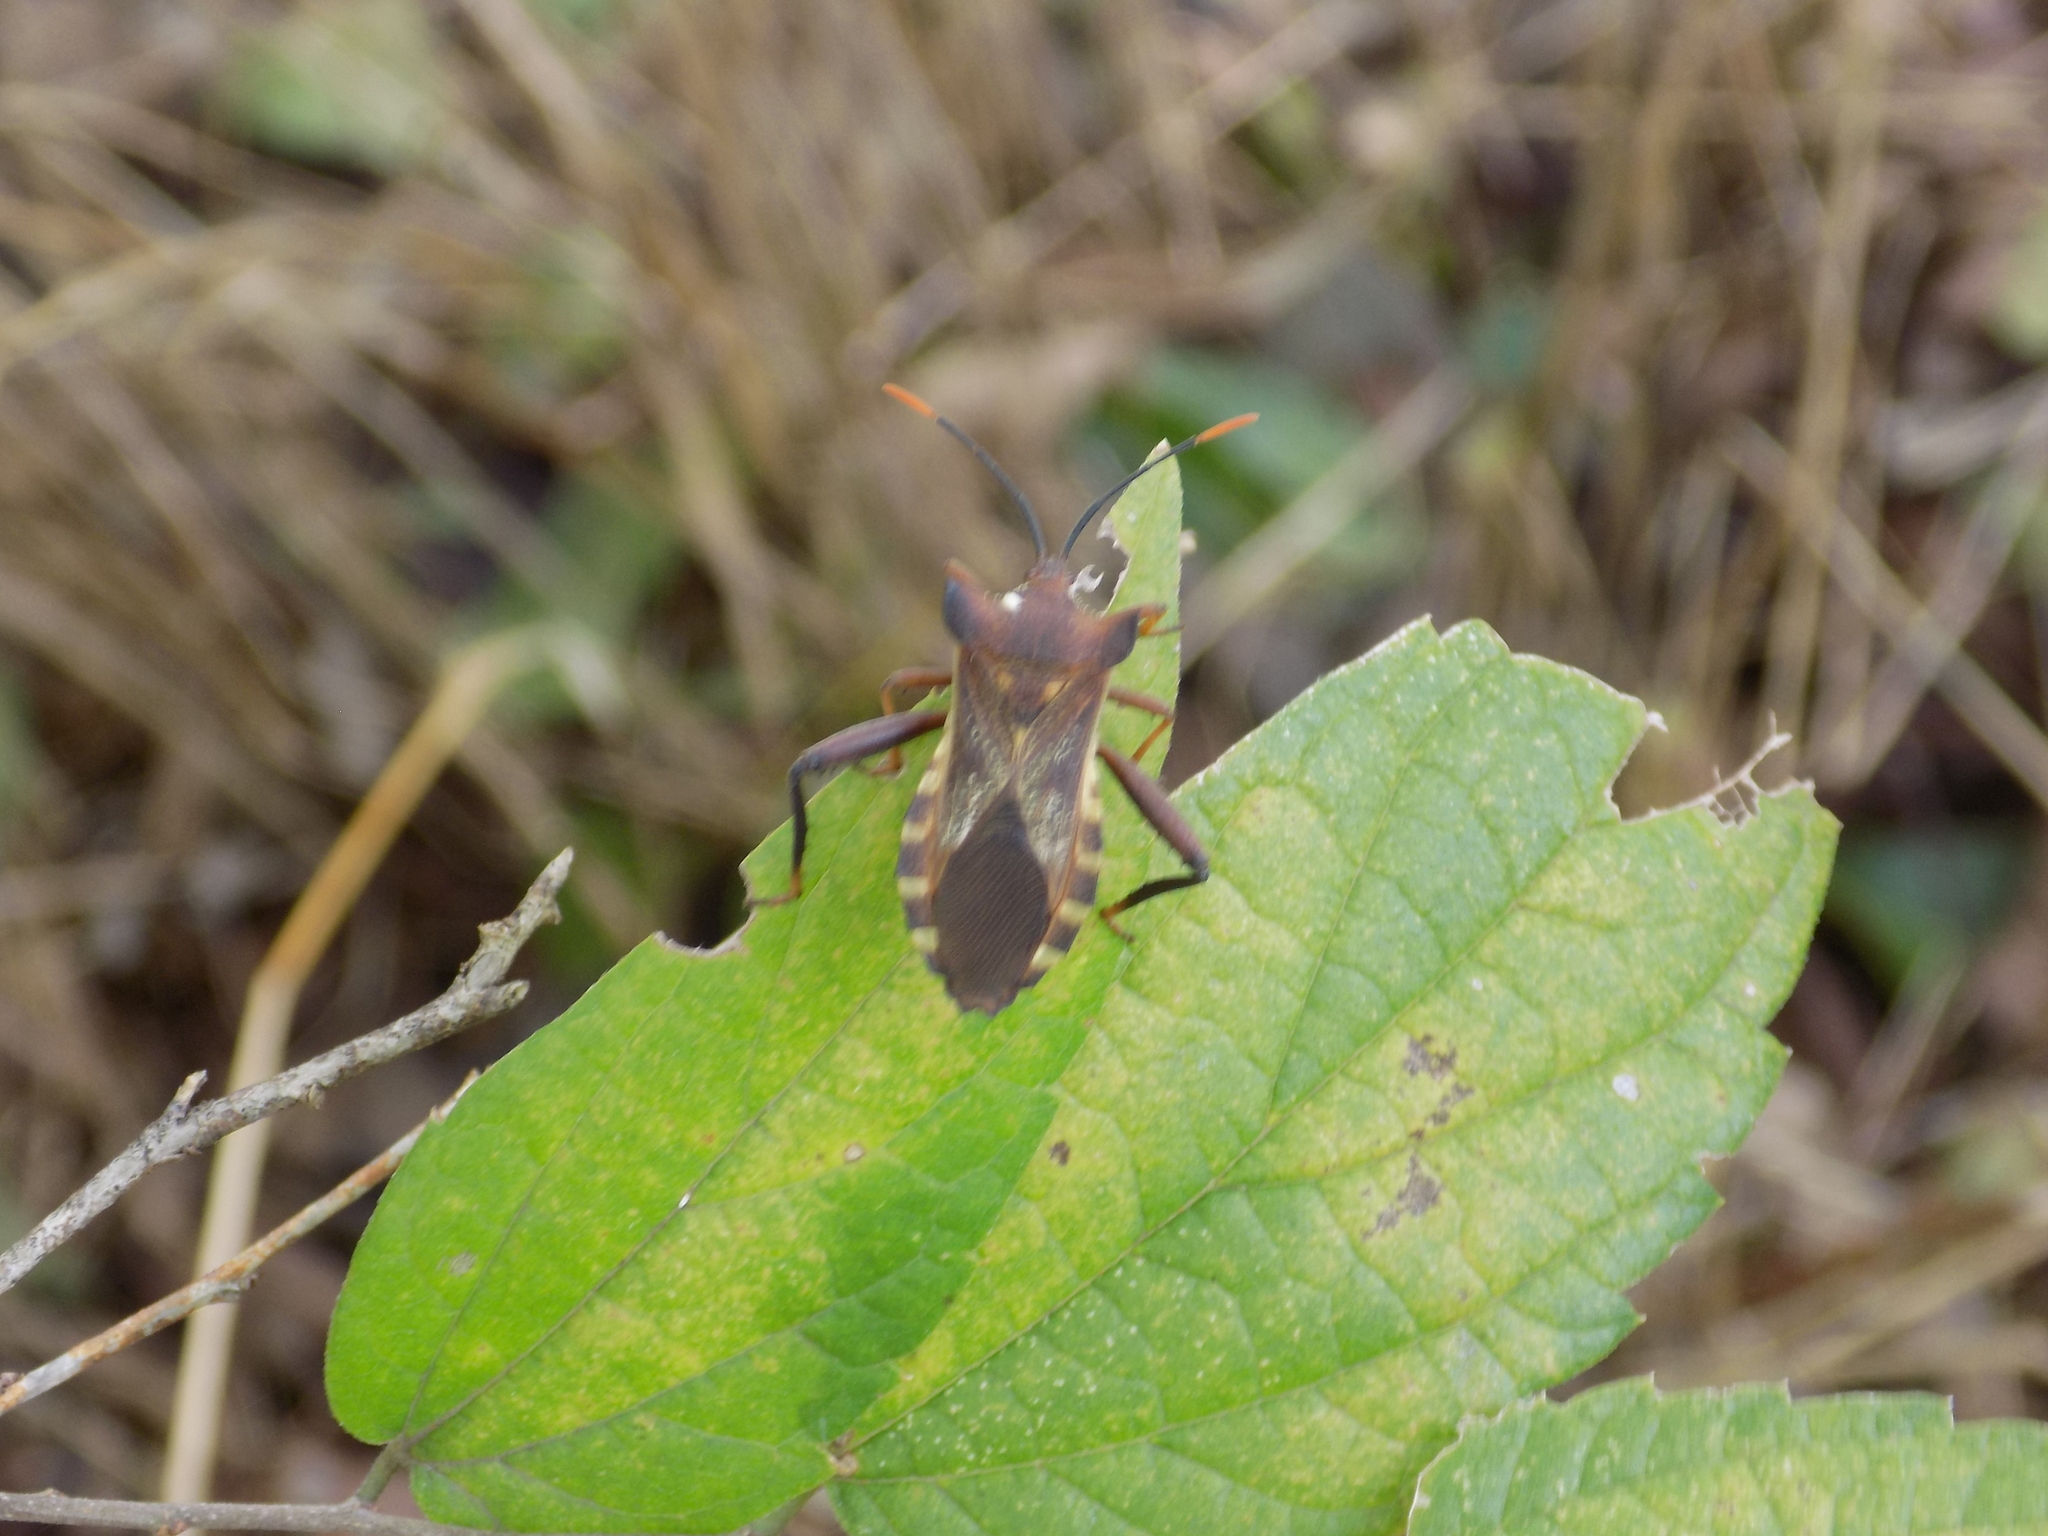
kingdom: Animalia
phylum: Arthropoda
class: Insecta
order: Hemiptera
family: Coreidae
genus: Mozena
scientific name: Mozena lunata
